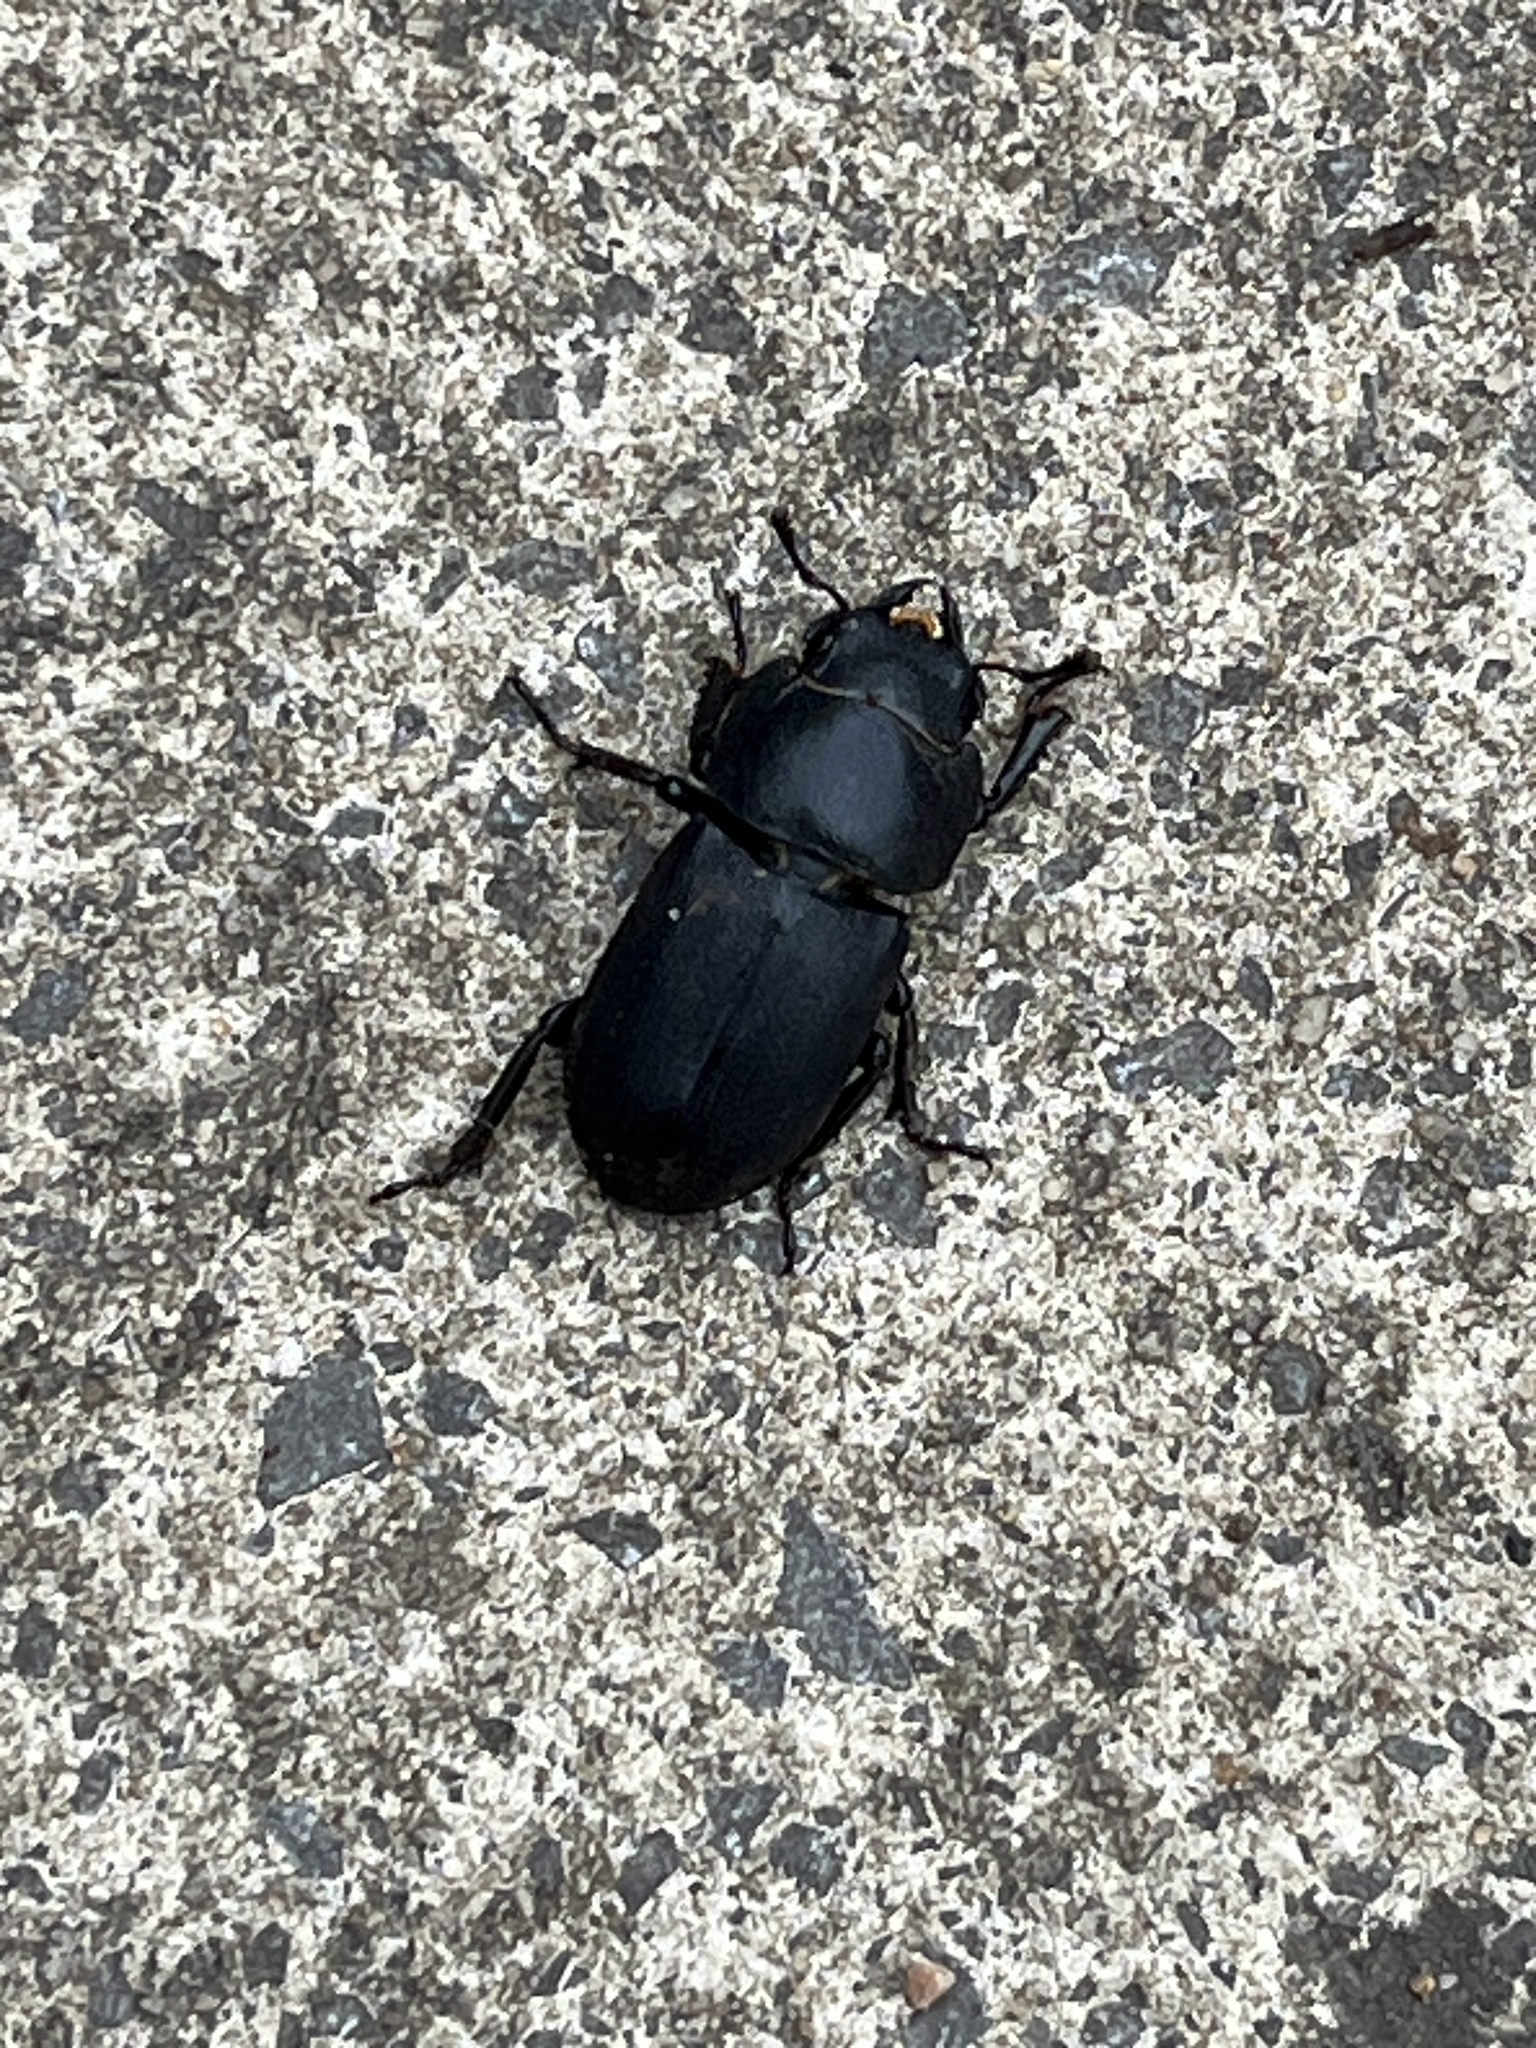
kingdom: Animalia
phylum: Arthropoda
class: Insecta
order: Coleoptera
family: Lucanidae
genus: Dorcus
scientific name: Dorcus parallelipipedus
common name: Lesser stag beetle
